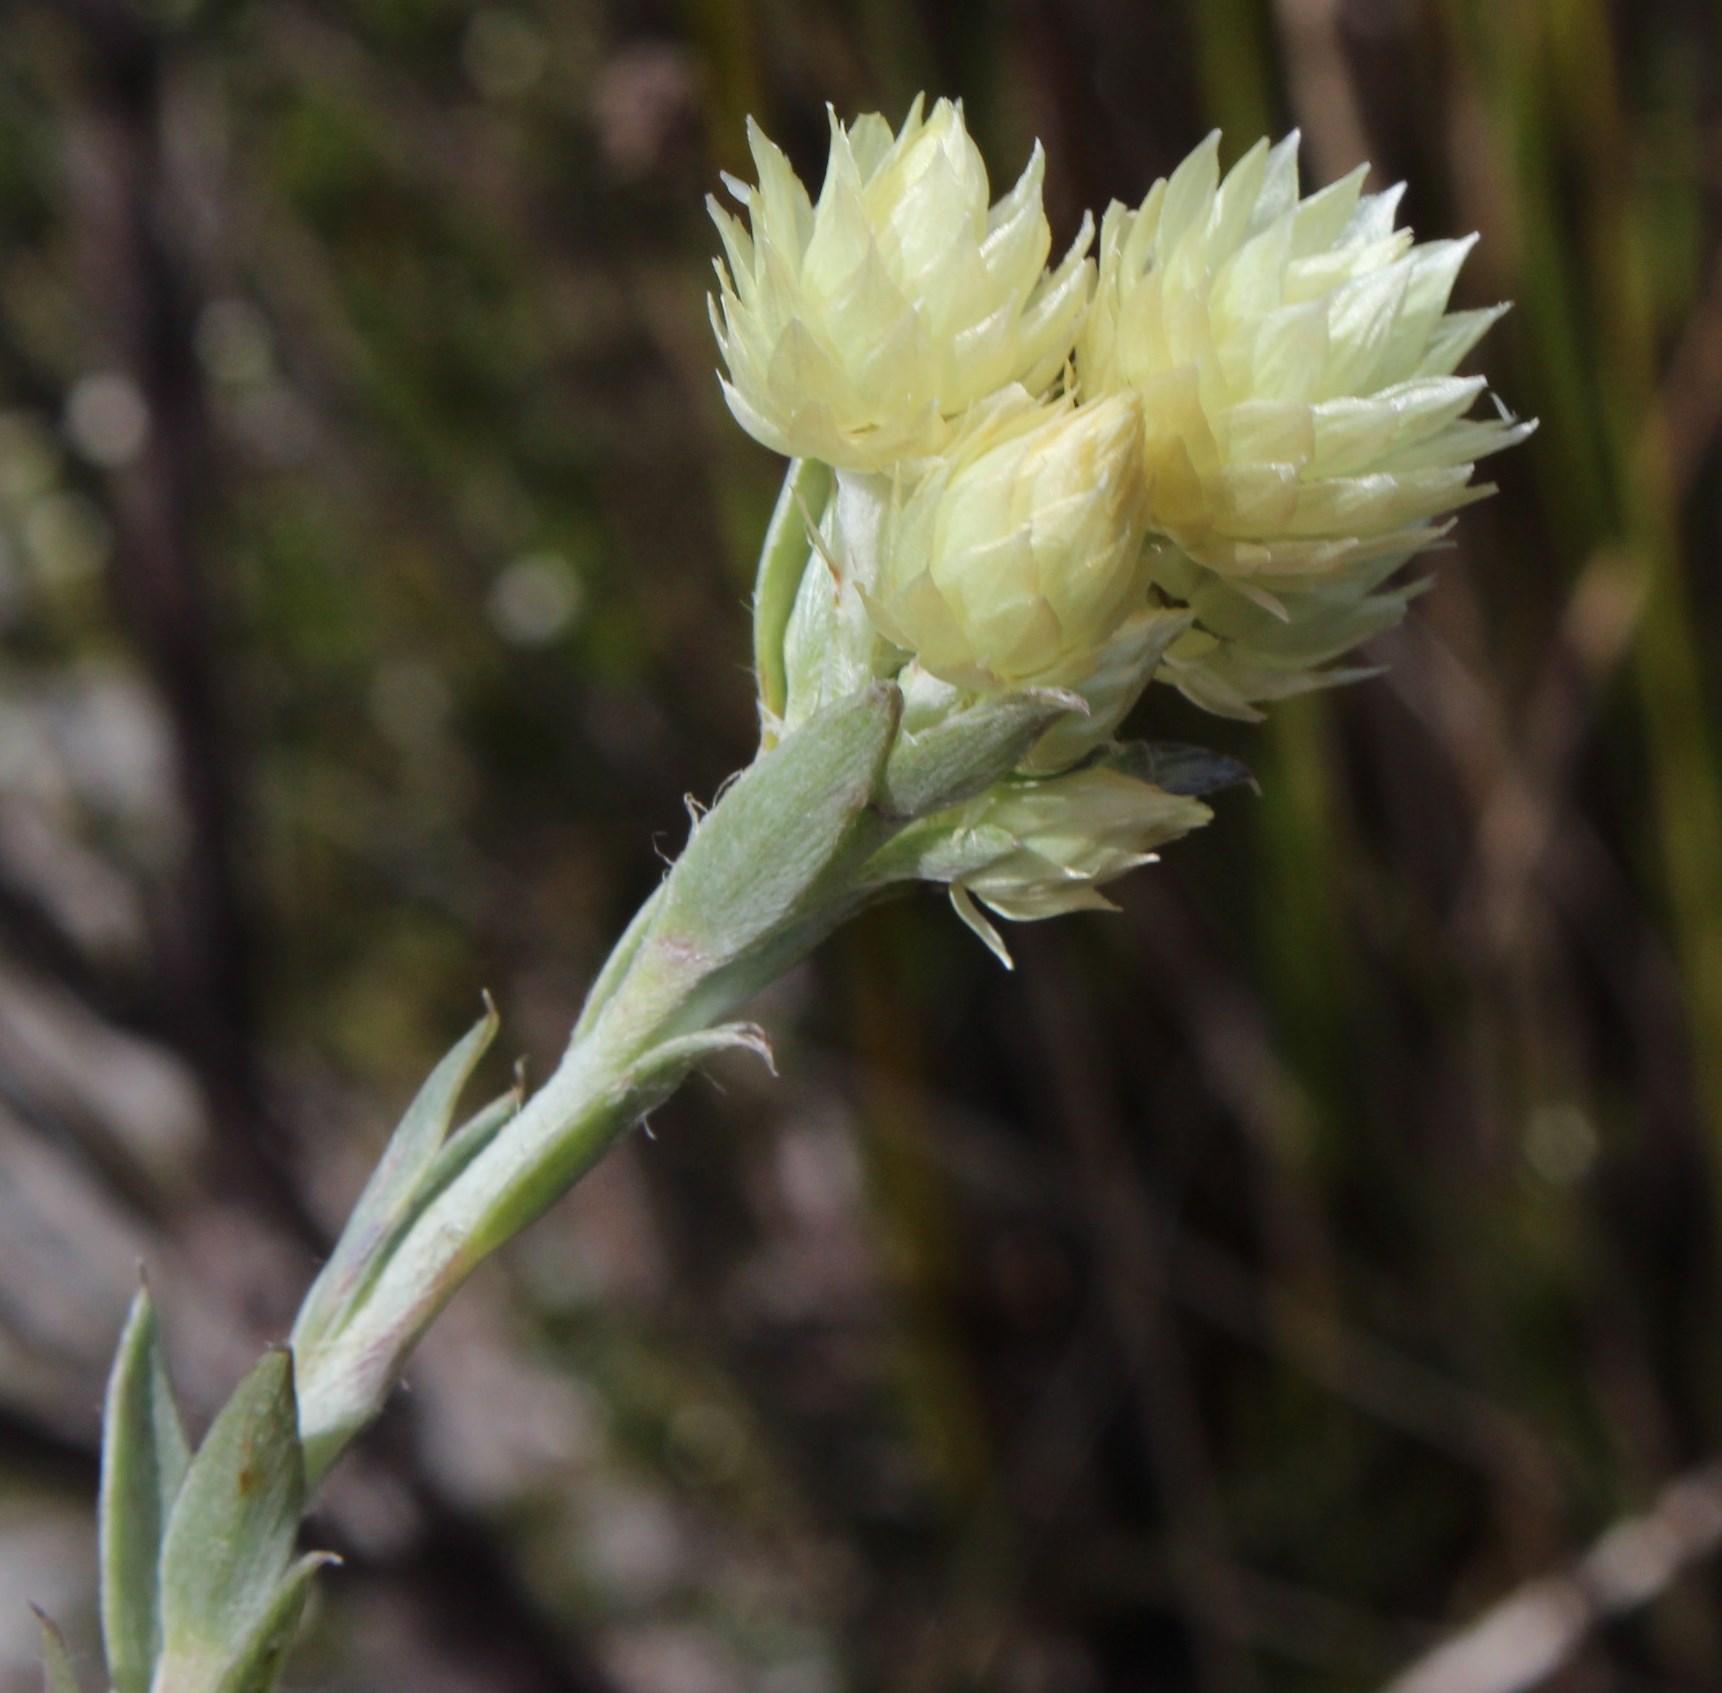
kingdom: Plantae
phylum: Tracheophyta
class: Magnoliopsida
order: Asterales
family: Asteraceae
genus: Achyranthemum
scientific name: Achyranthemum paniculatum
